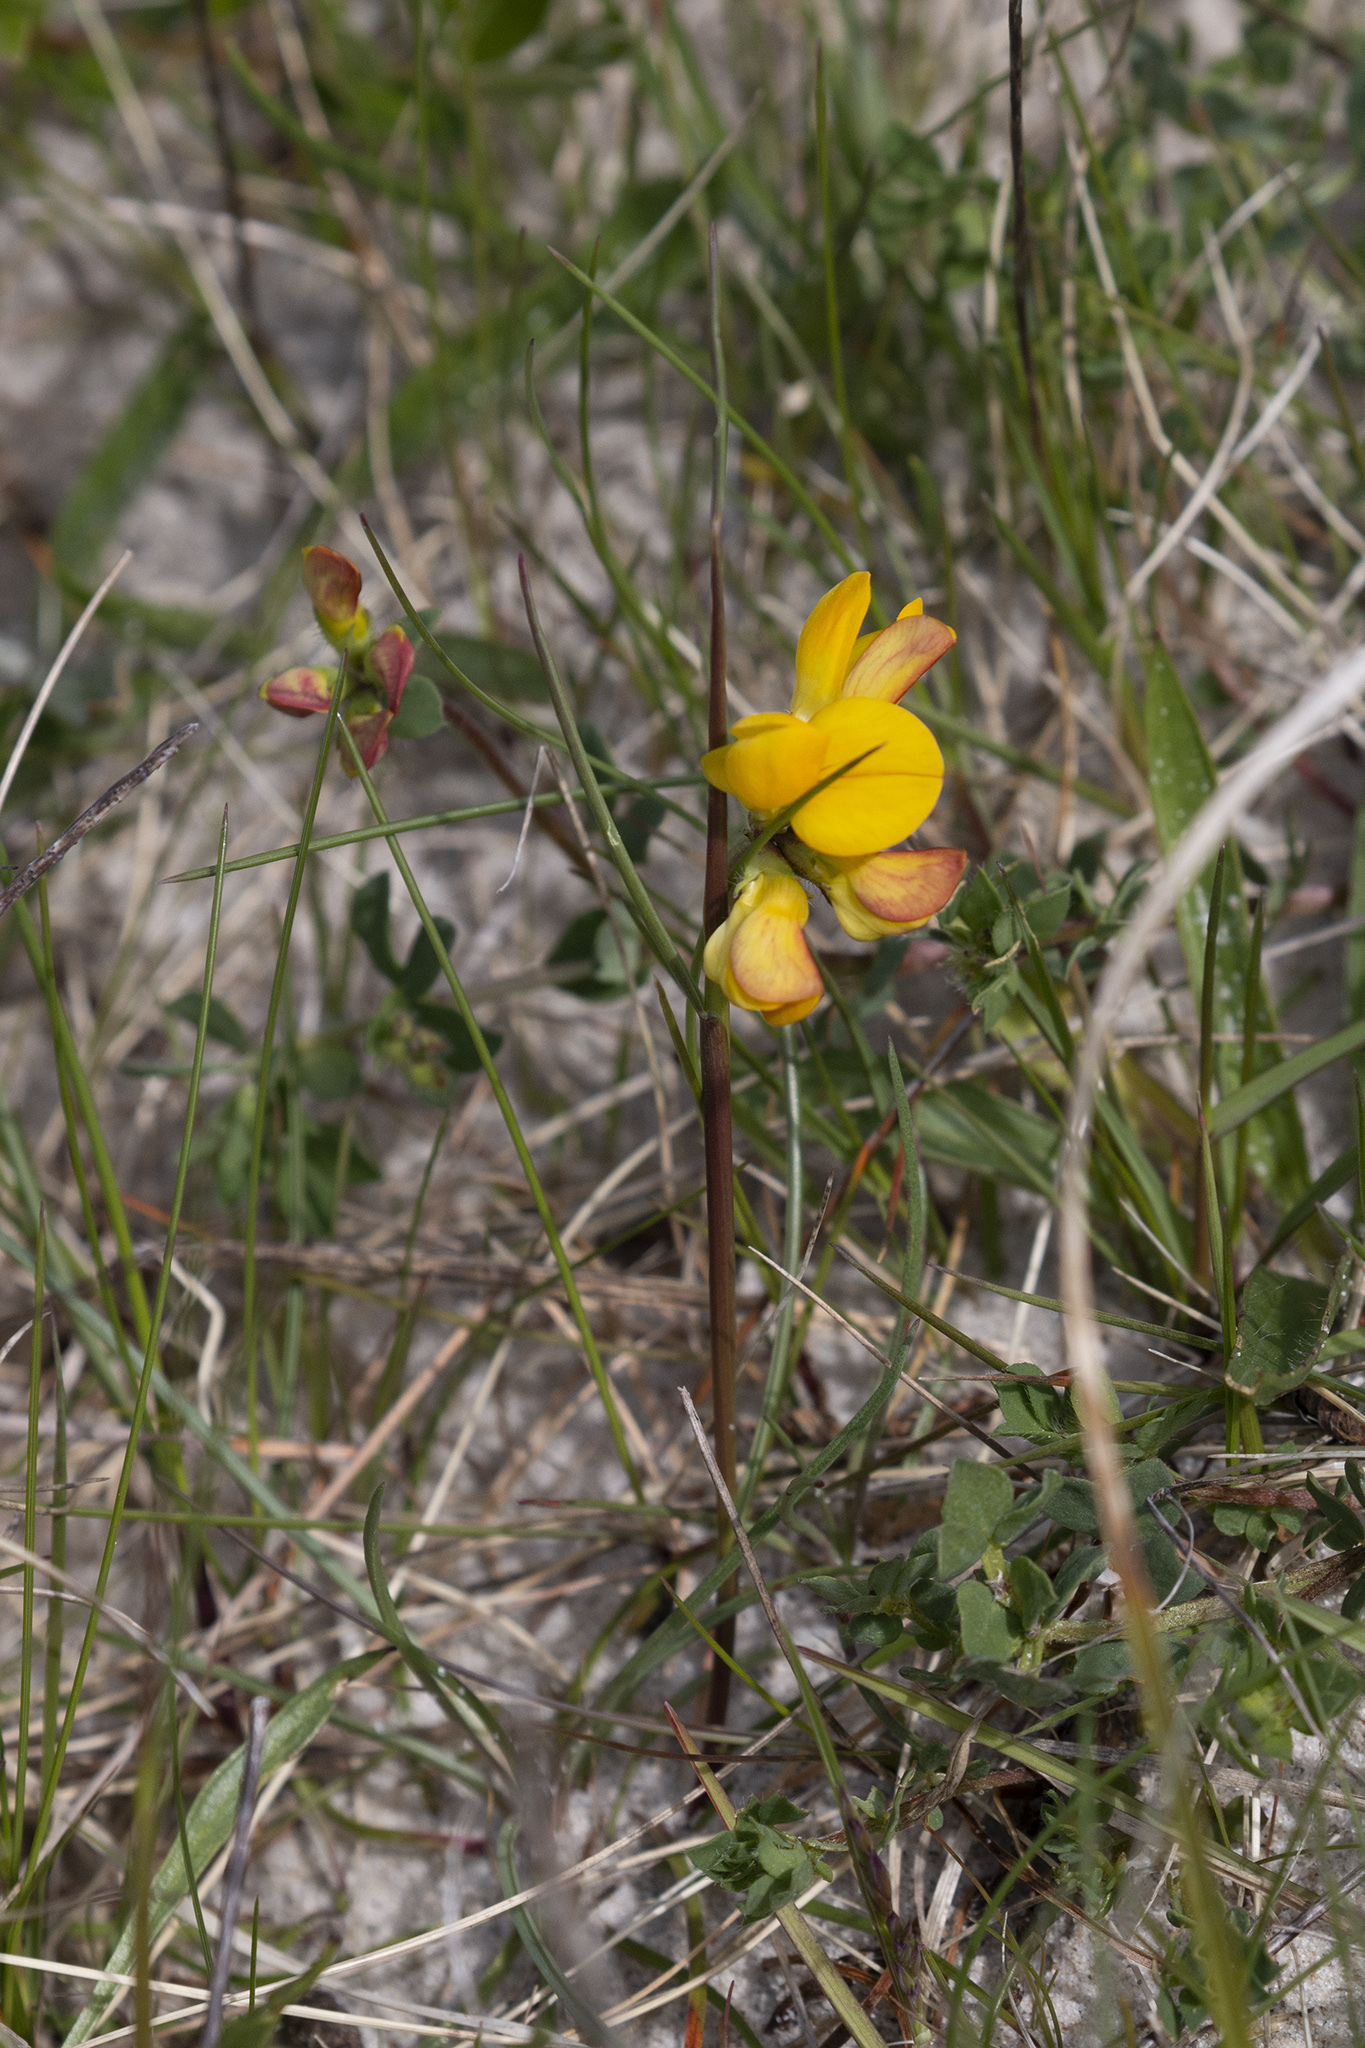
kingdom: Plantae
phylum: Tracheophyta
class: Magnoliopsida
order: Fabales
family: Fabaceae
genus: Lotus
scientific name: Lotus corniculatus
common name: Common bird's-foot-trefoil
